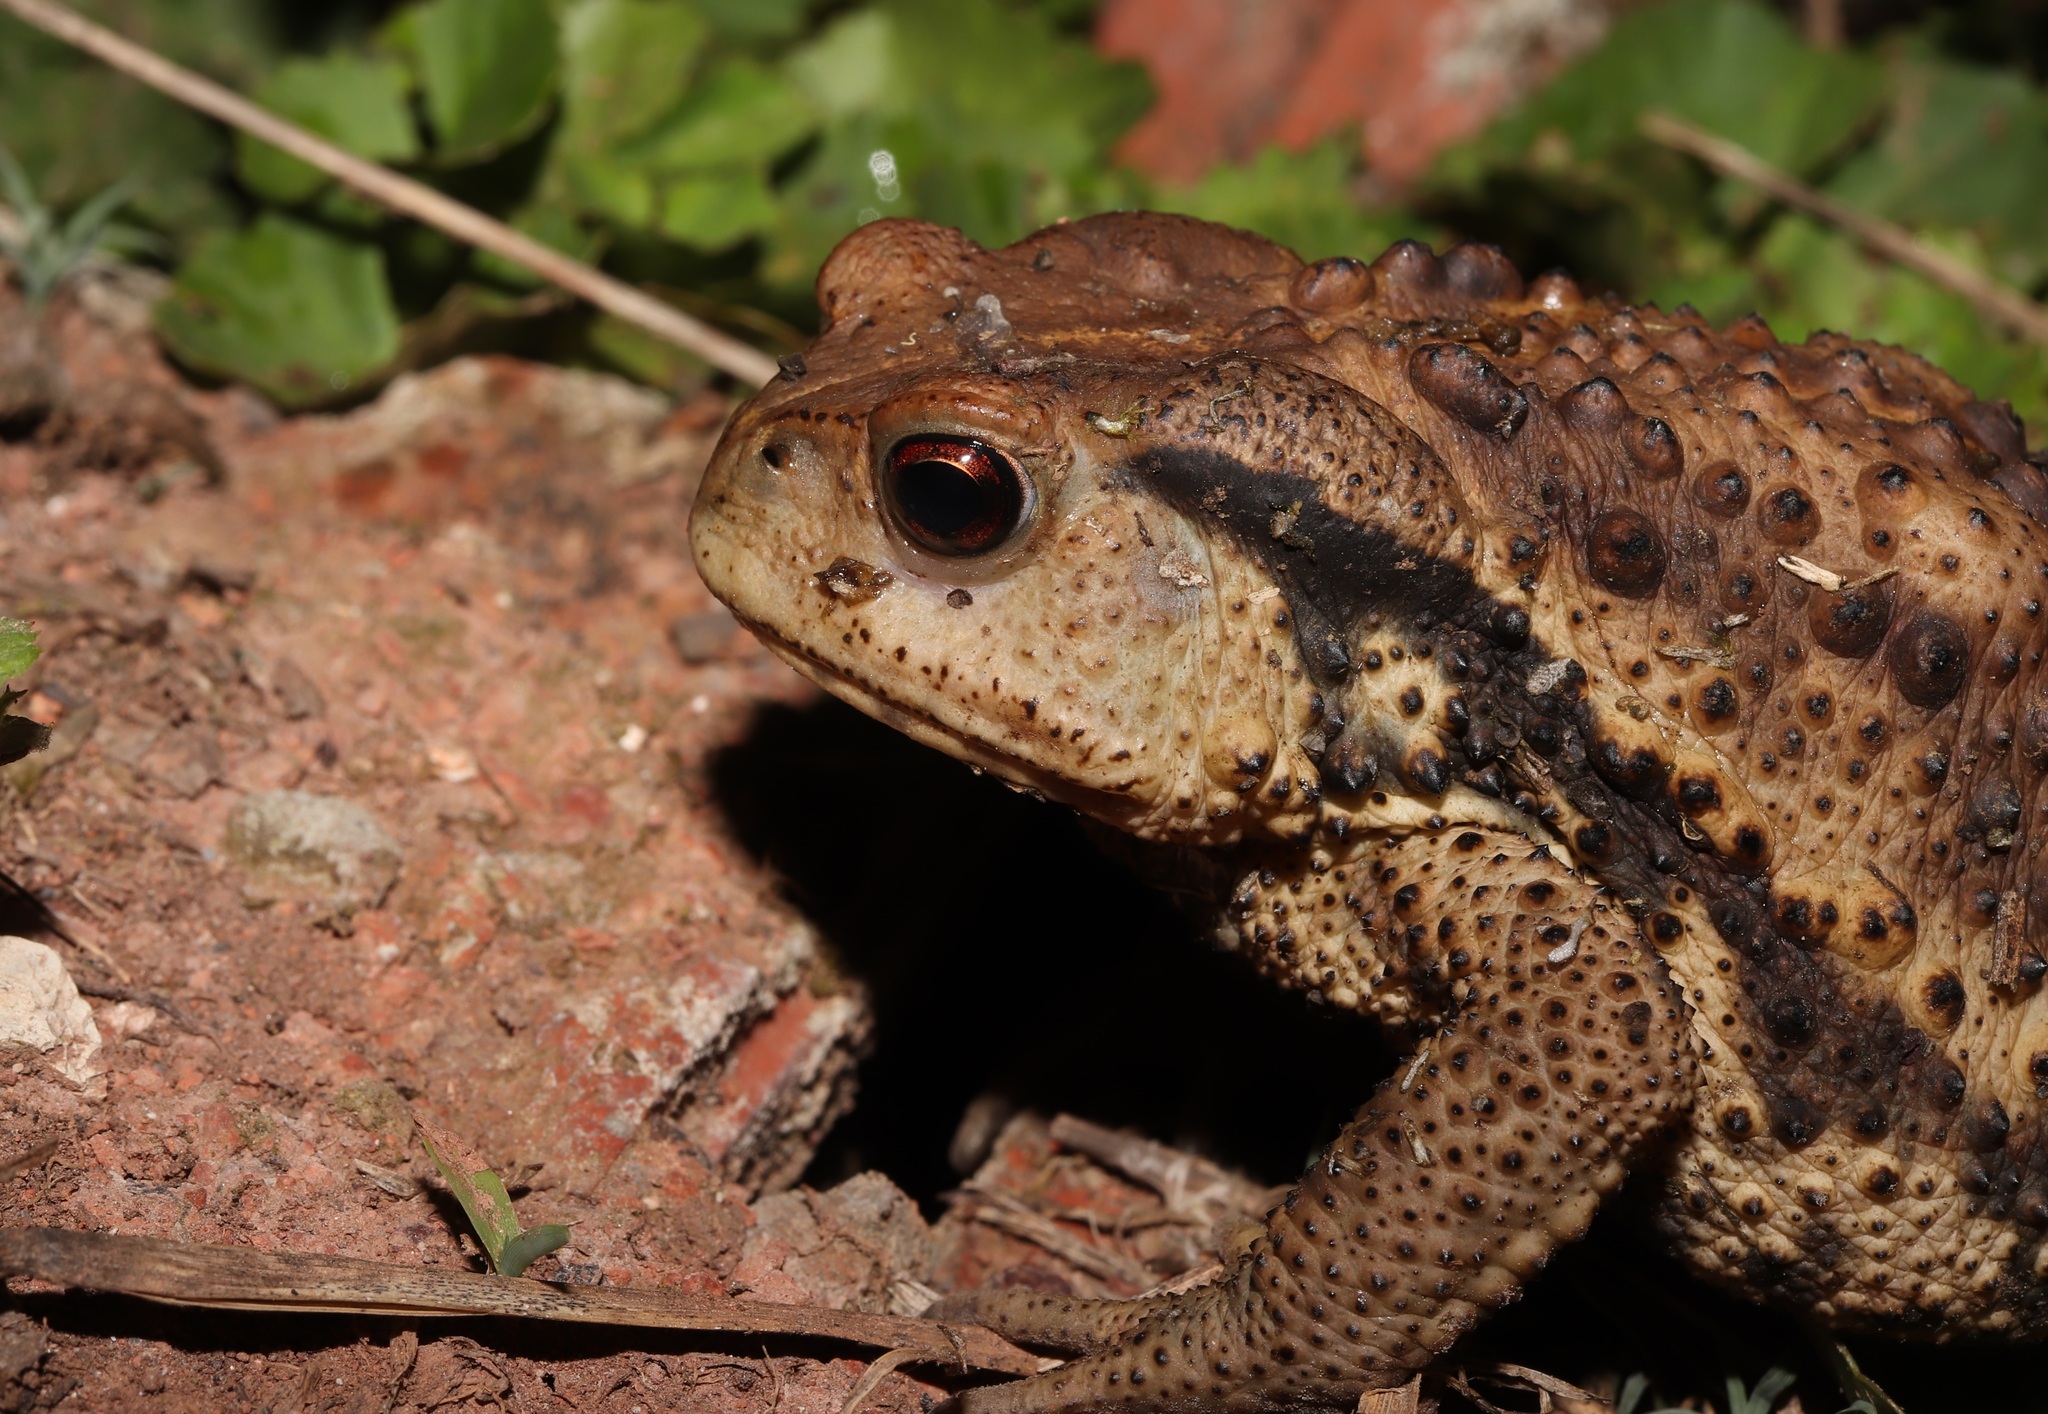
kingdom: Animalia
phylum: Chordata
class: Amphibia
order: Anura
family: Bufonidae
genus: Bufo
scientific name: Bufo gargarizans
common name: Asiatic toad
